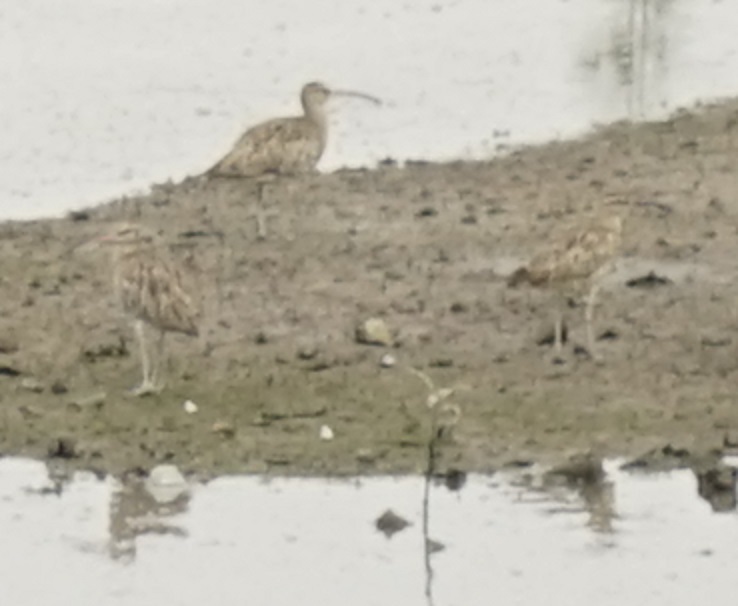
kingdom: Animalia
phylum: Chordata
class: Aves
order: Charadriiformes
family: Scolopacidae
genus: Numenius
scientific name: Numenius phaeopus
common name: Whimbrel
